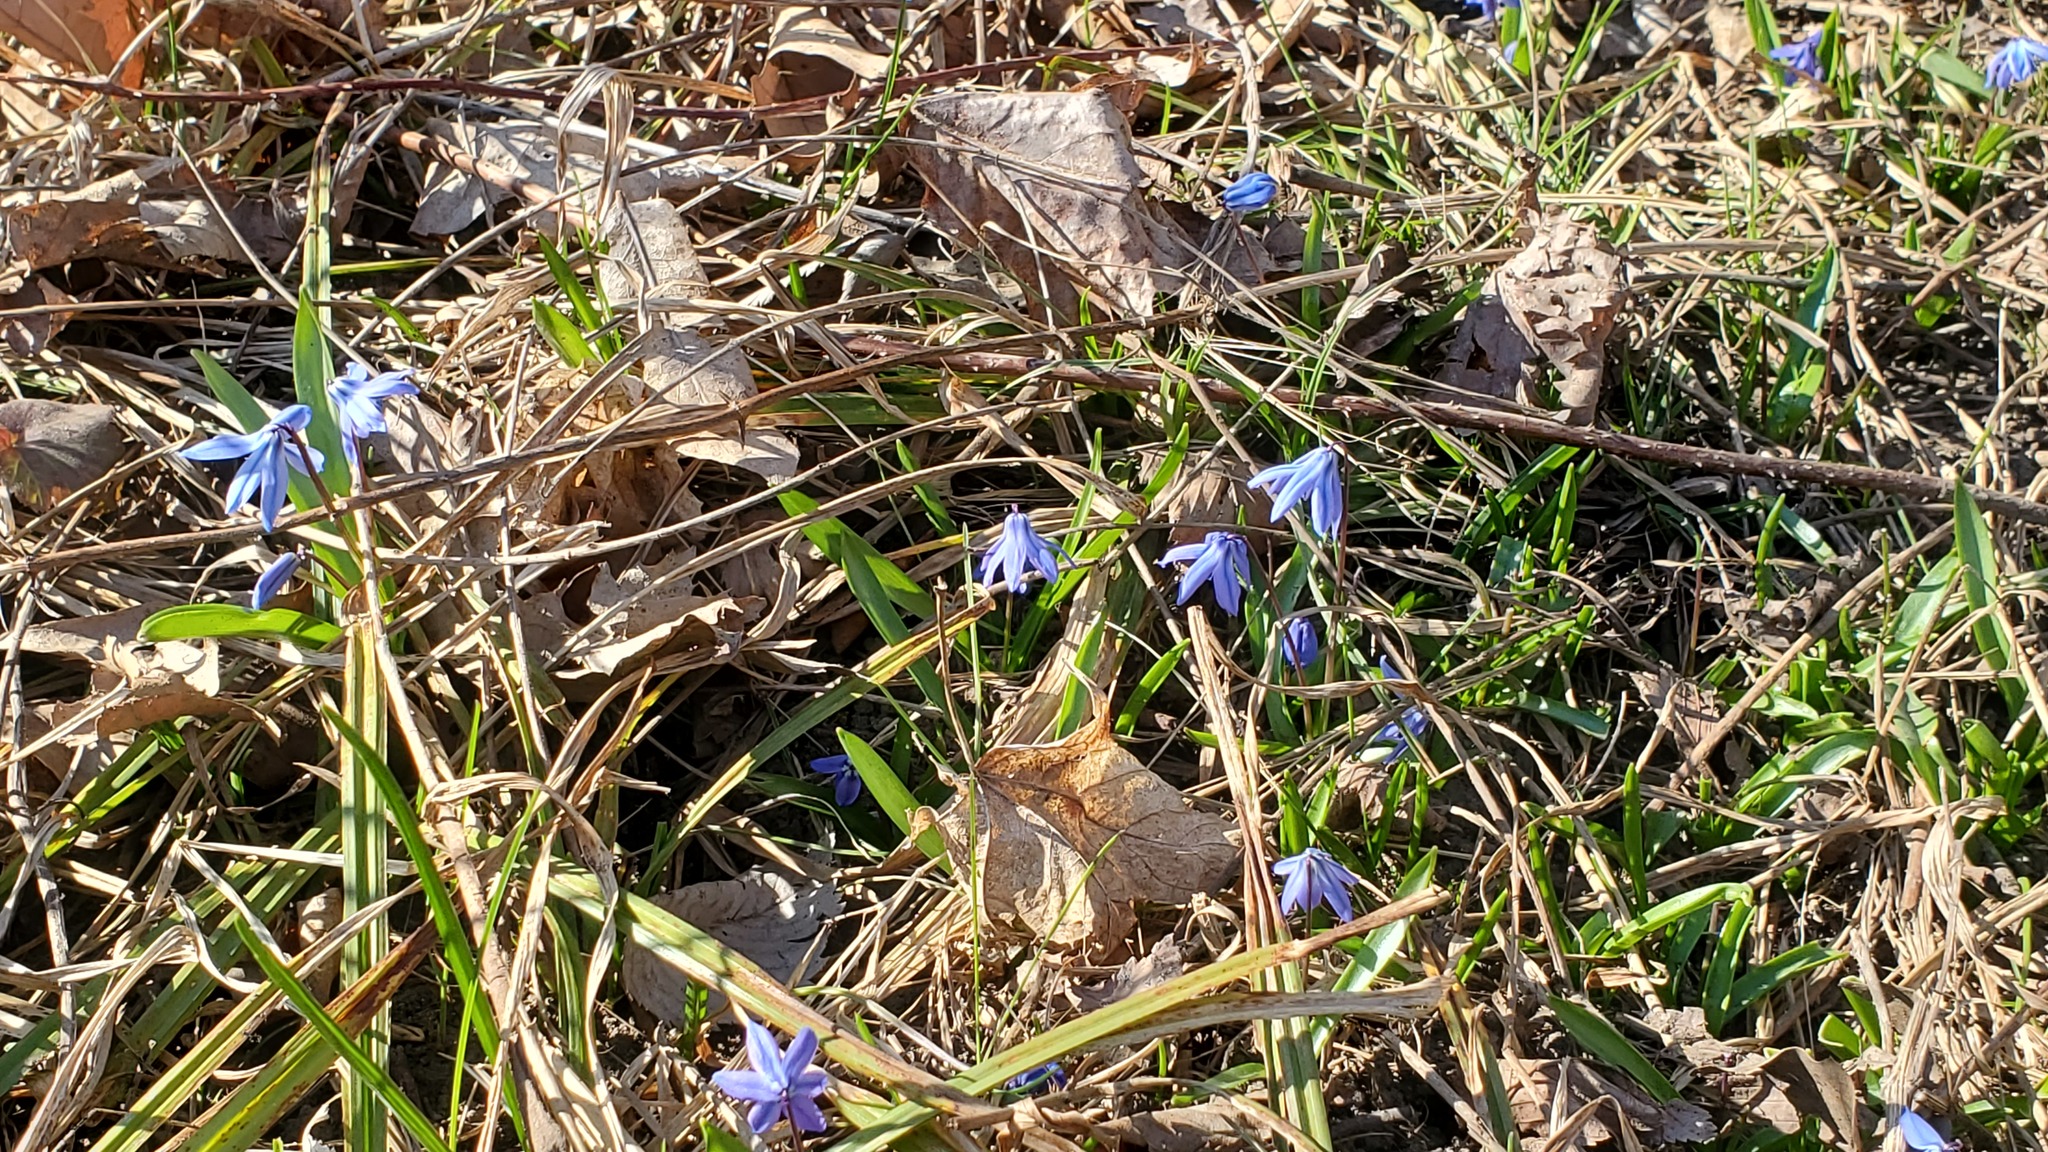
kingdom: Plantae
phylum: Tracheophyta
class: Liliopsida
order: Asparagales
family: Asparagaceae
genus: Scilla
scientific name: Scilla siberica
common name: Siberian squill
